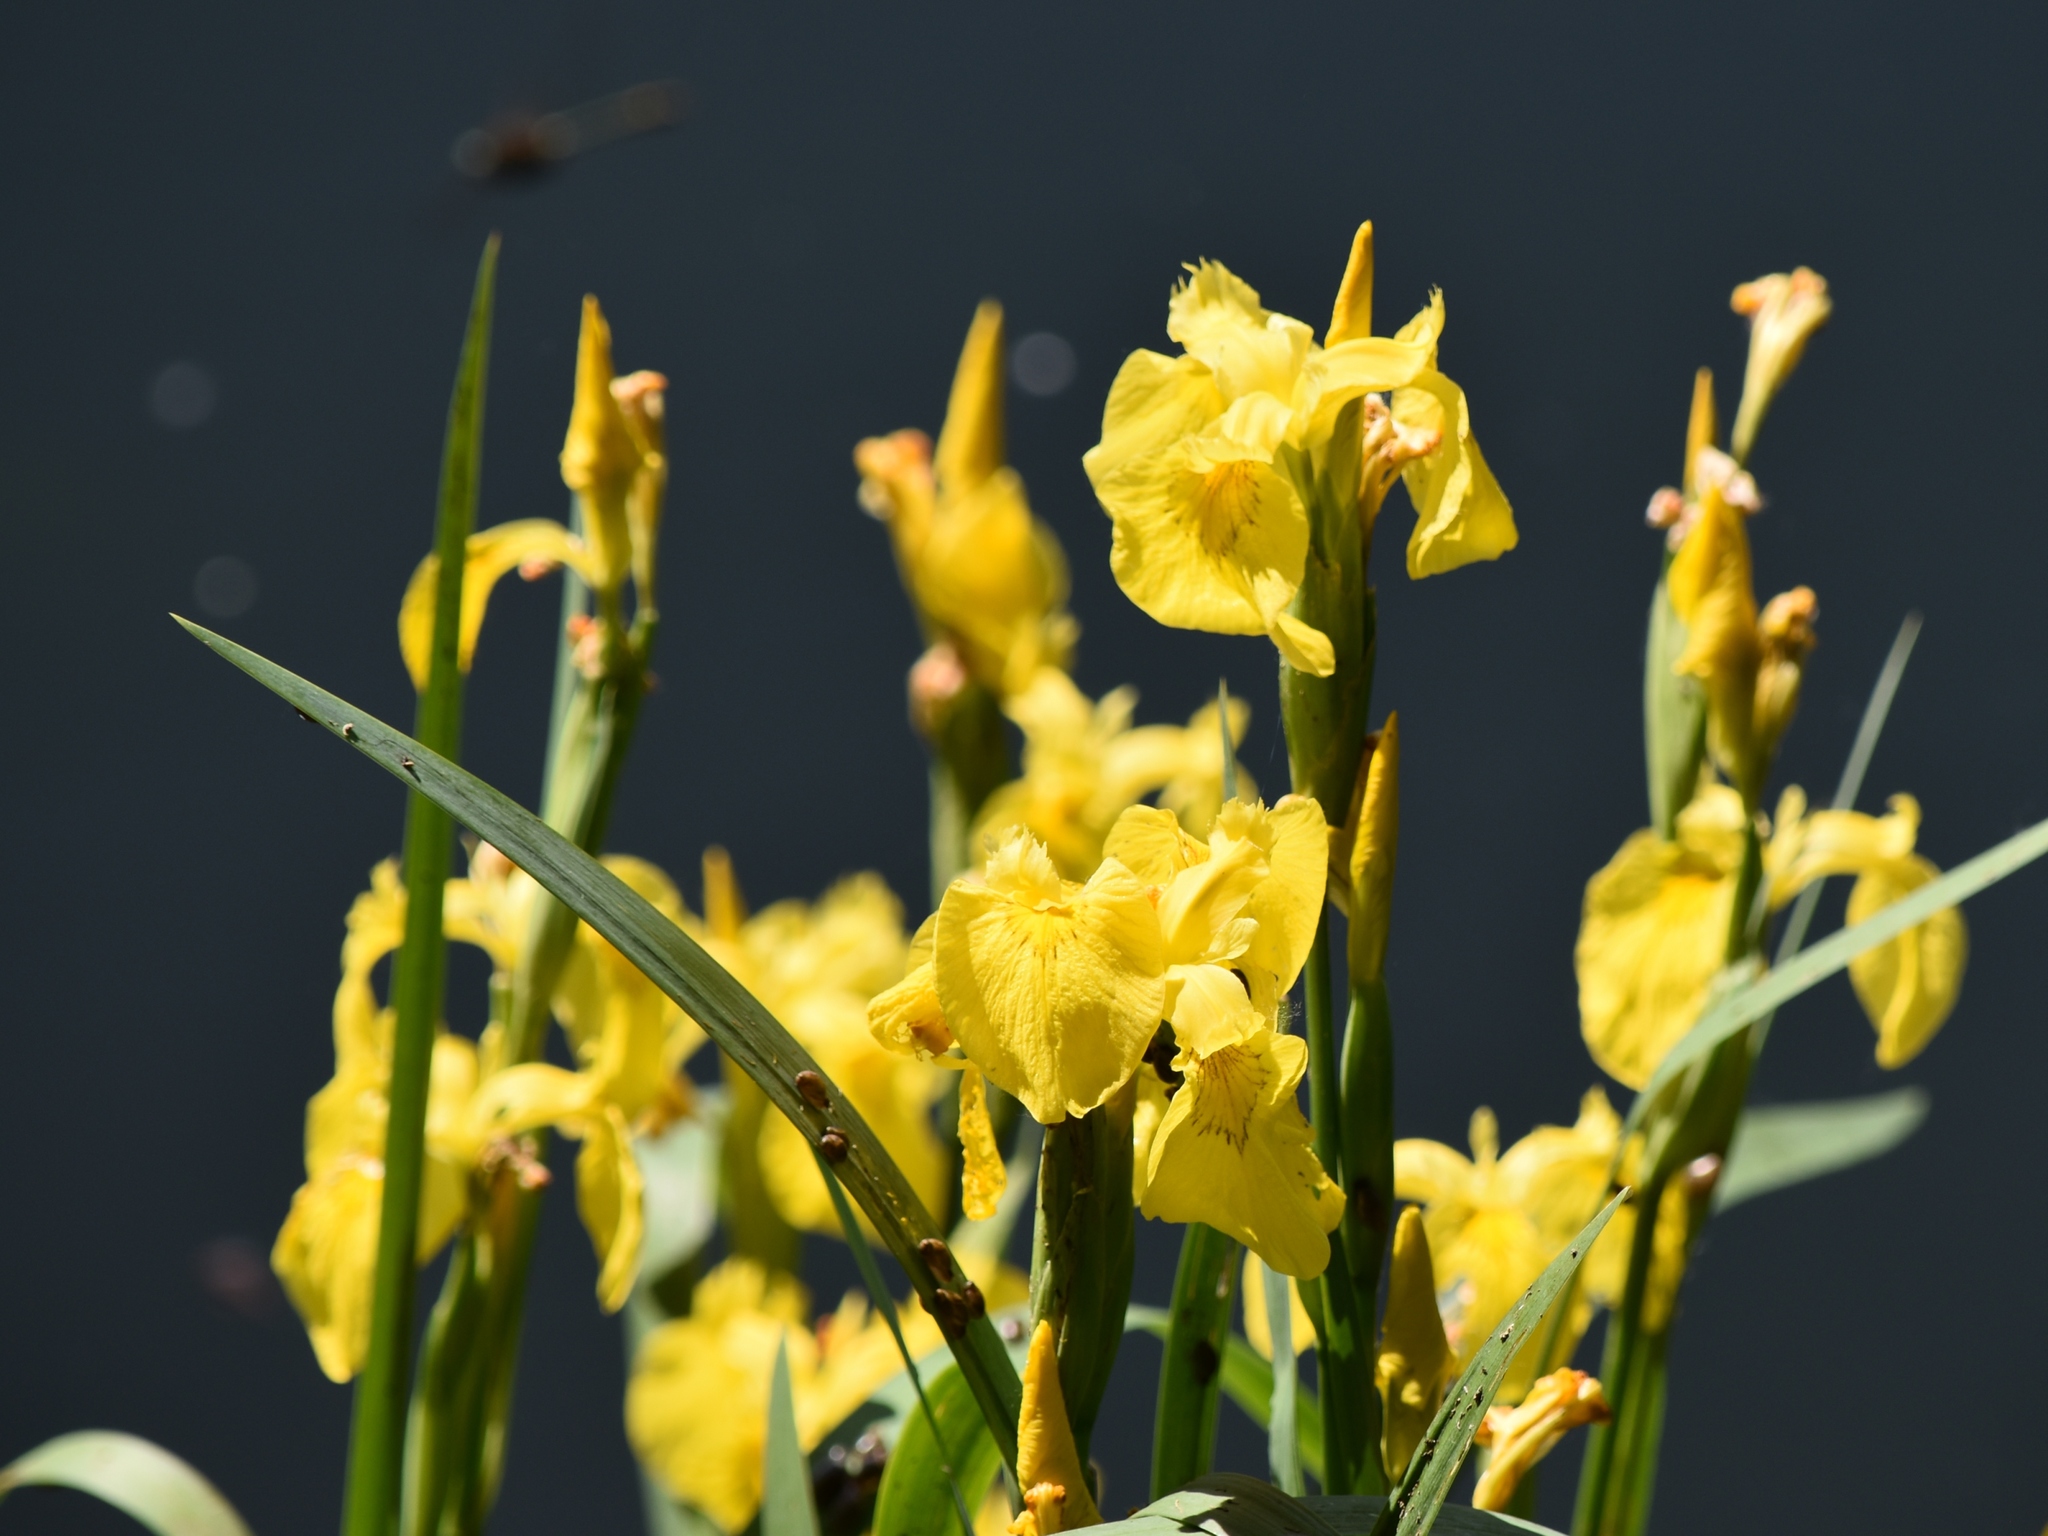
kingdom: Plantae
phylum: Tracheophyta
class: Liliopsida
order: Asparagales
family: Iridaceae
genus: Iris
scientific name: Iris pseudacorus
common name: Yellow flag
